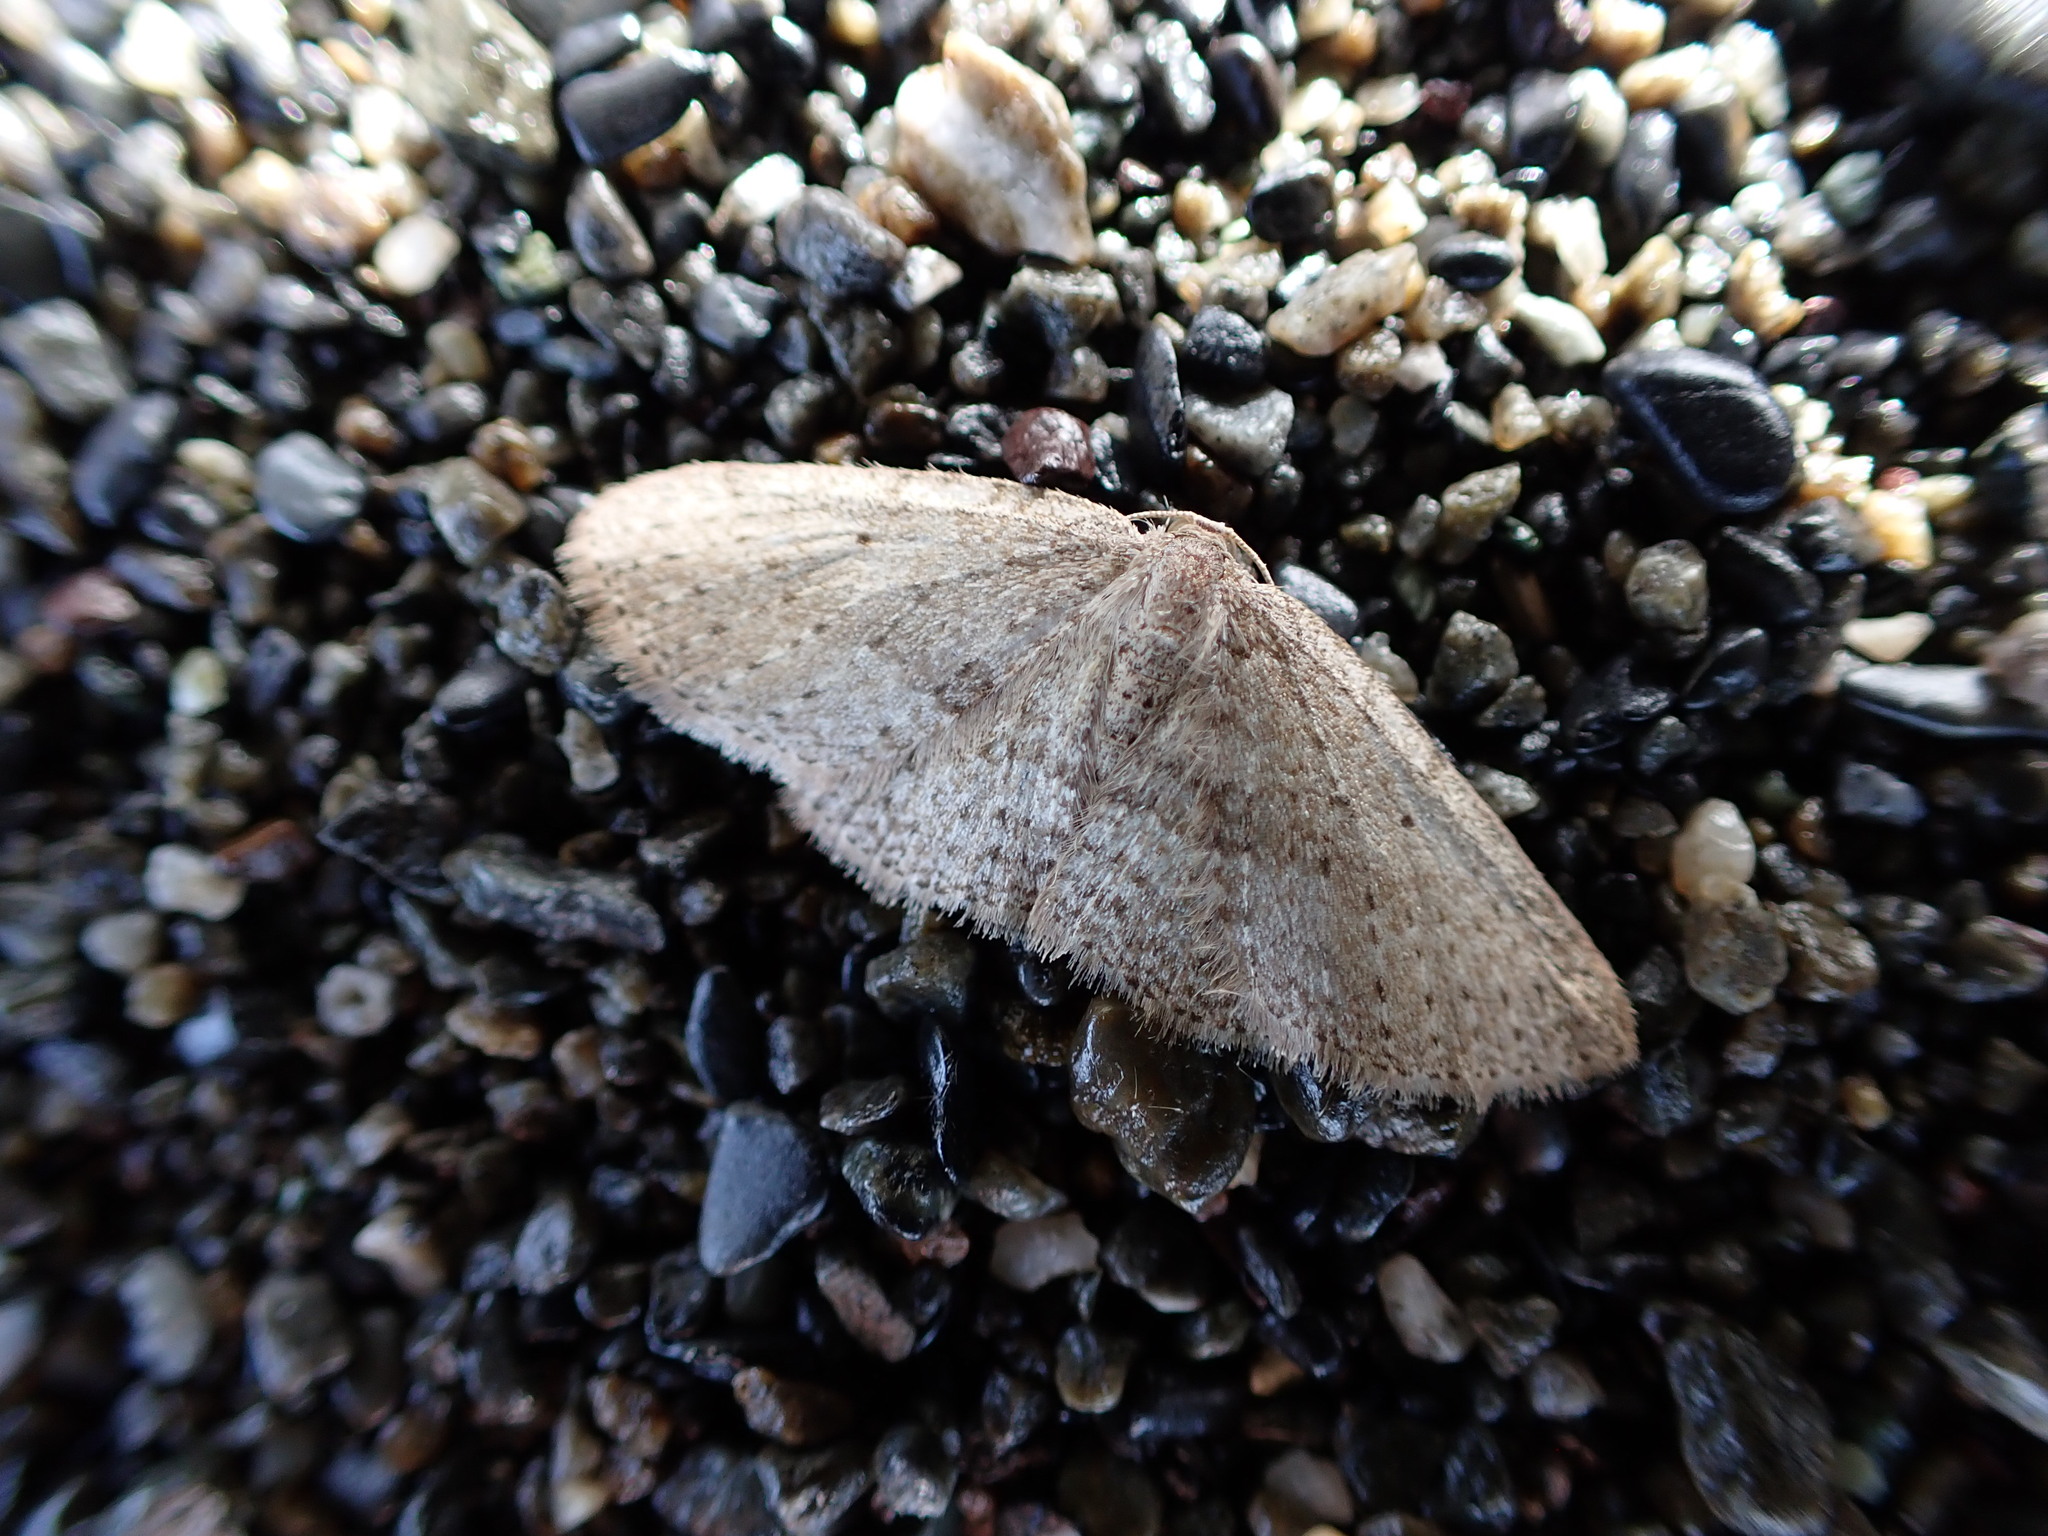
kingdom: Animalia
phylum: Arthropoda
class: Insecta
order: Lepidoptera
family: Geometridae
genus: Poecilasthena
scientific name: Poecilasthena schistaria
